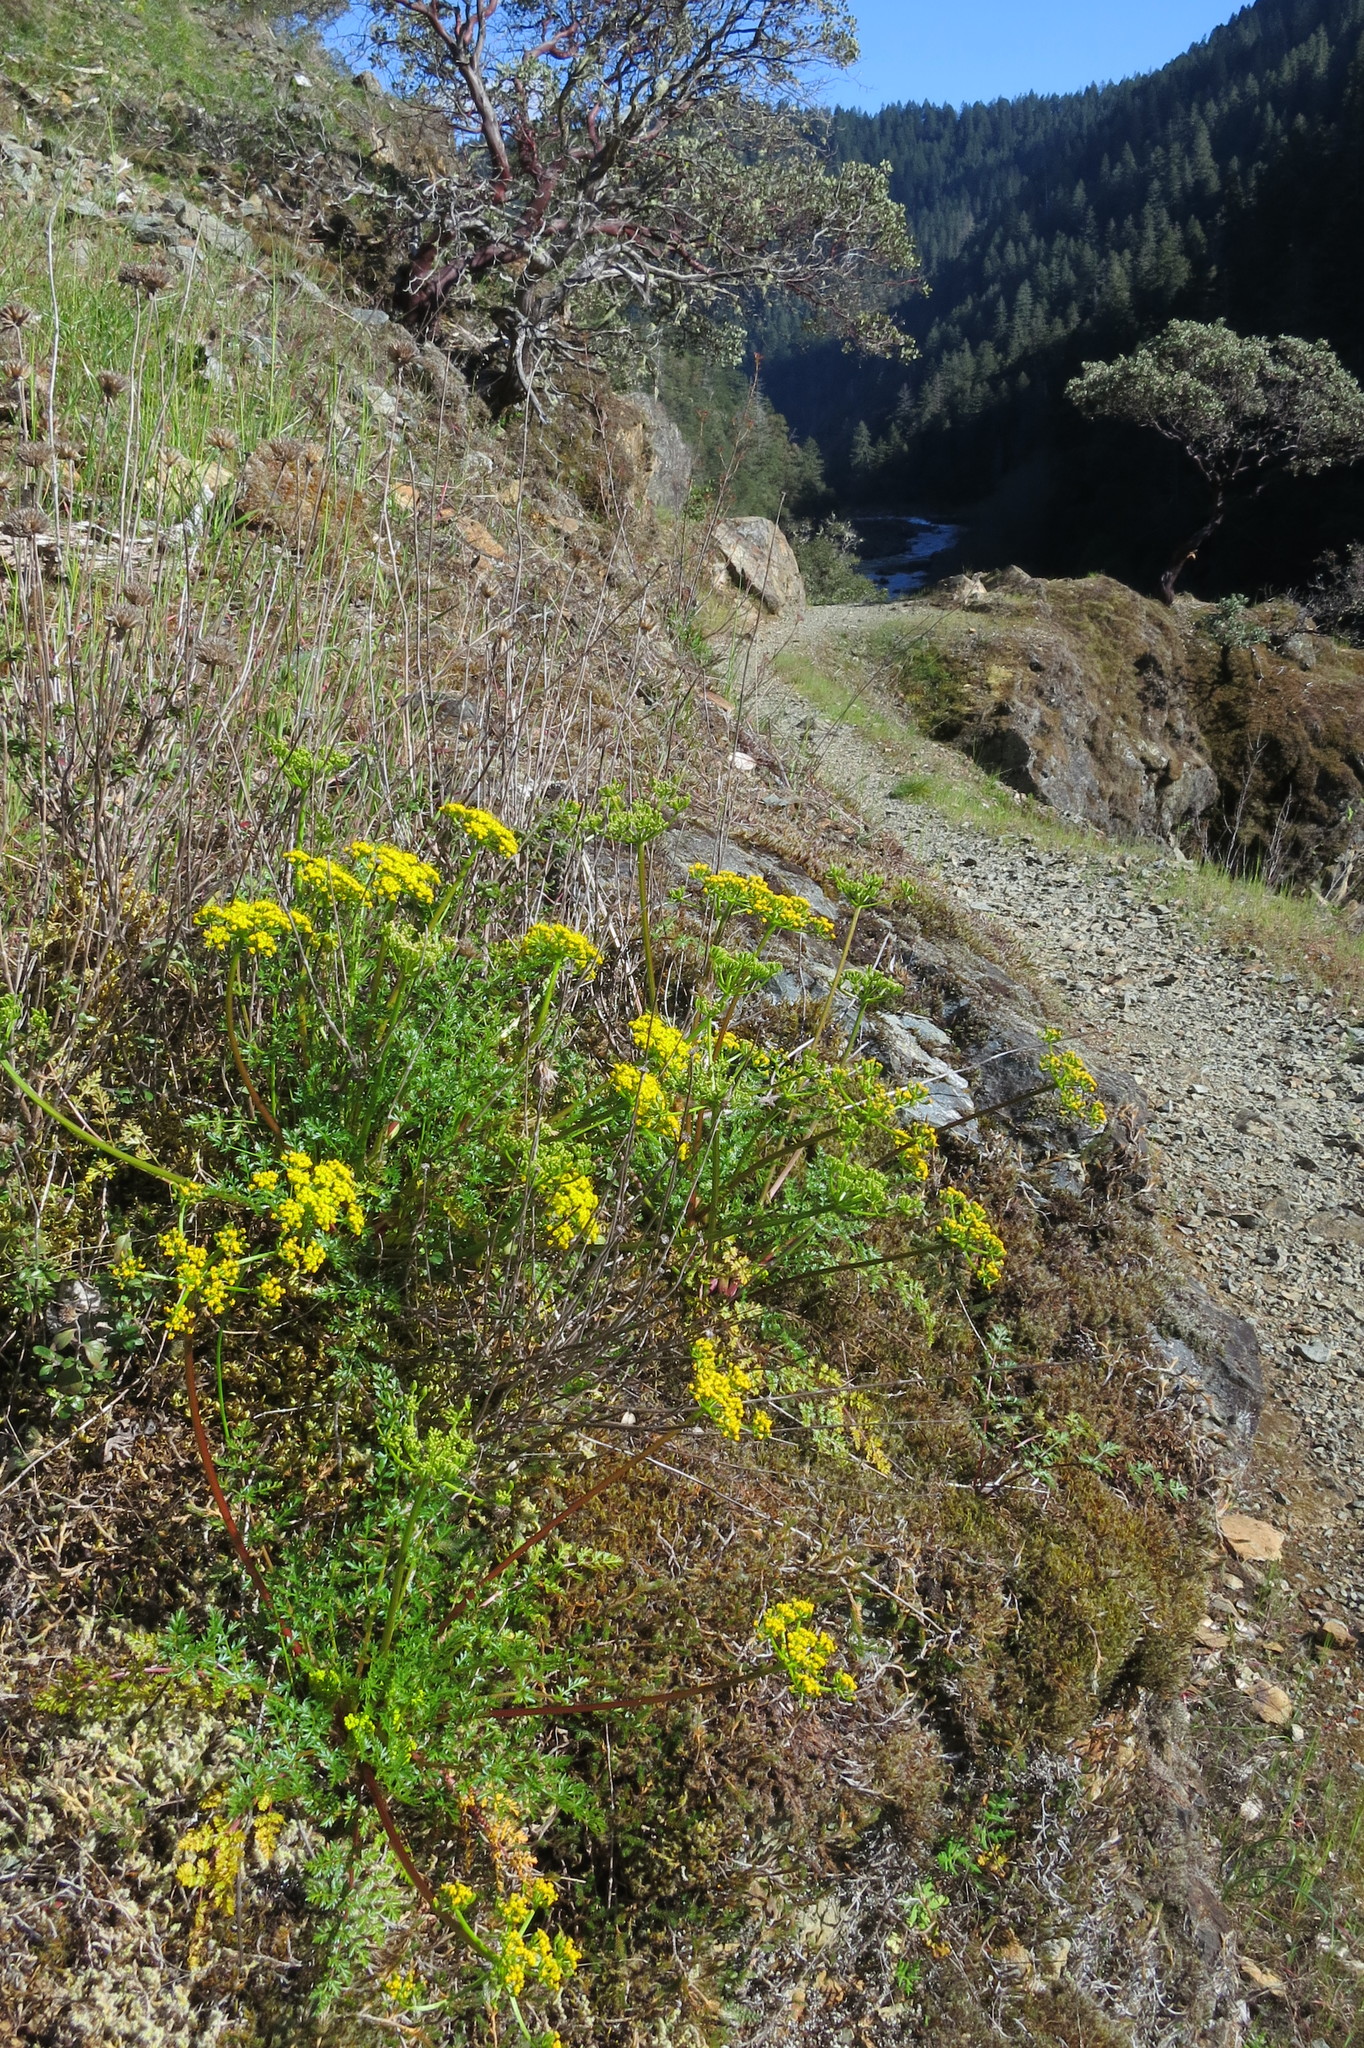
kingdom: Plantae
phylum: Tracheophyta
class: Magnoliopsida
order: Apiales
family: Apiaceae
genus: Lomatium
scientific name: Lomatium hallii
